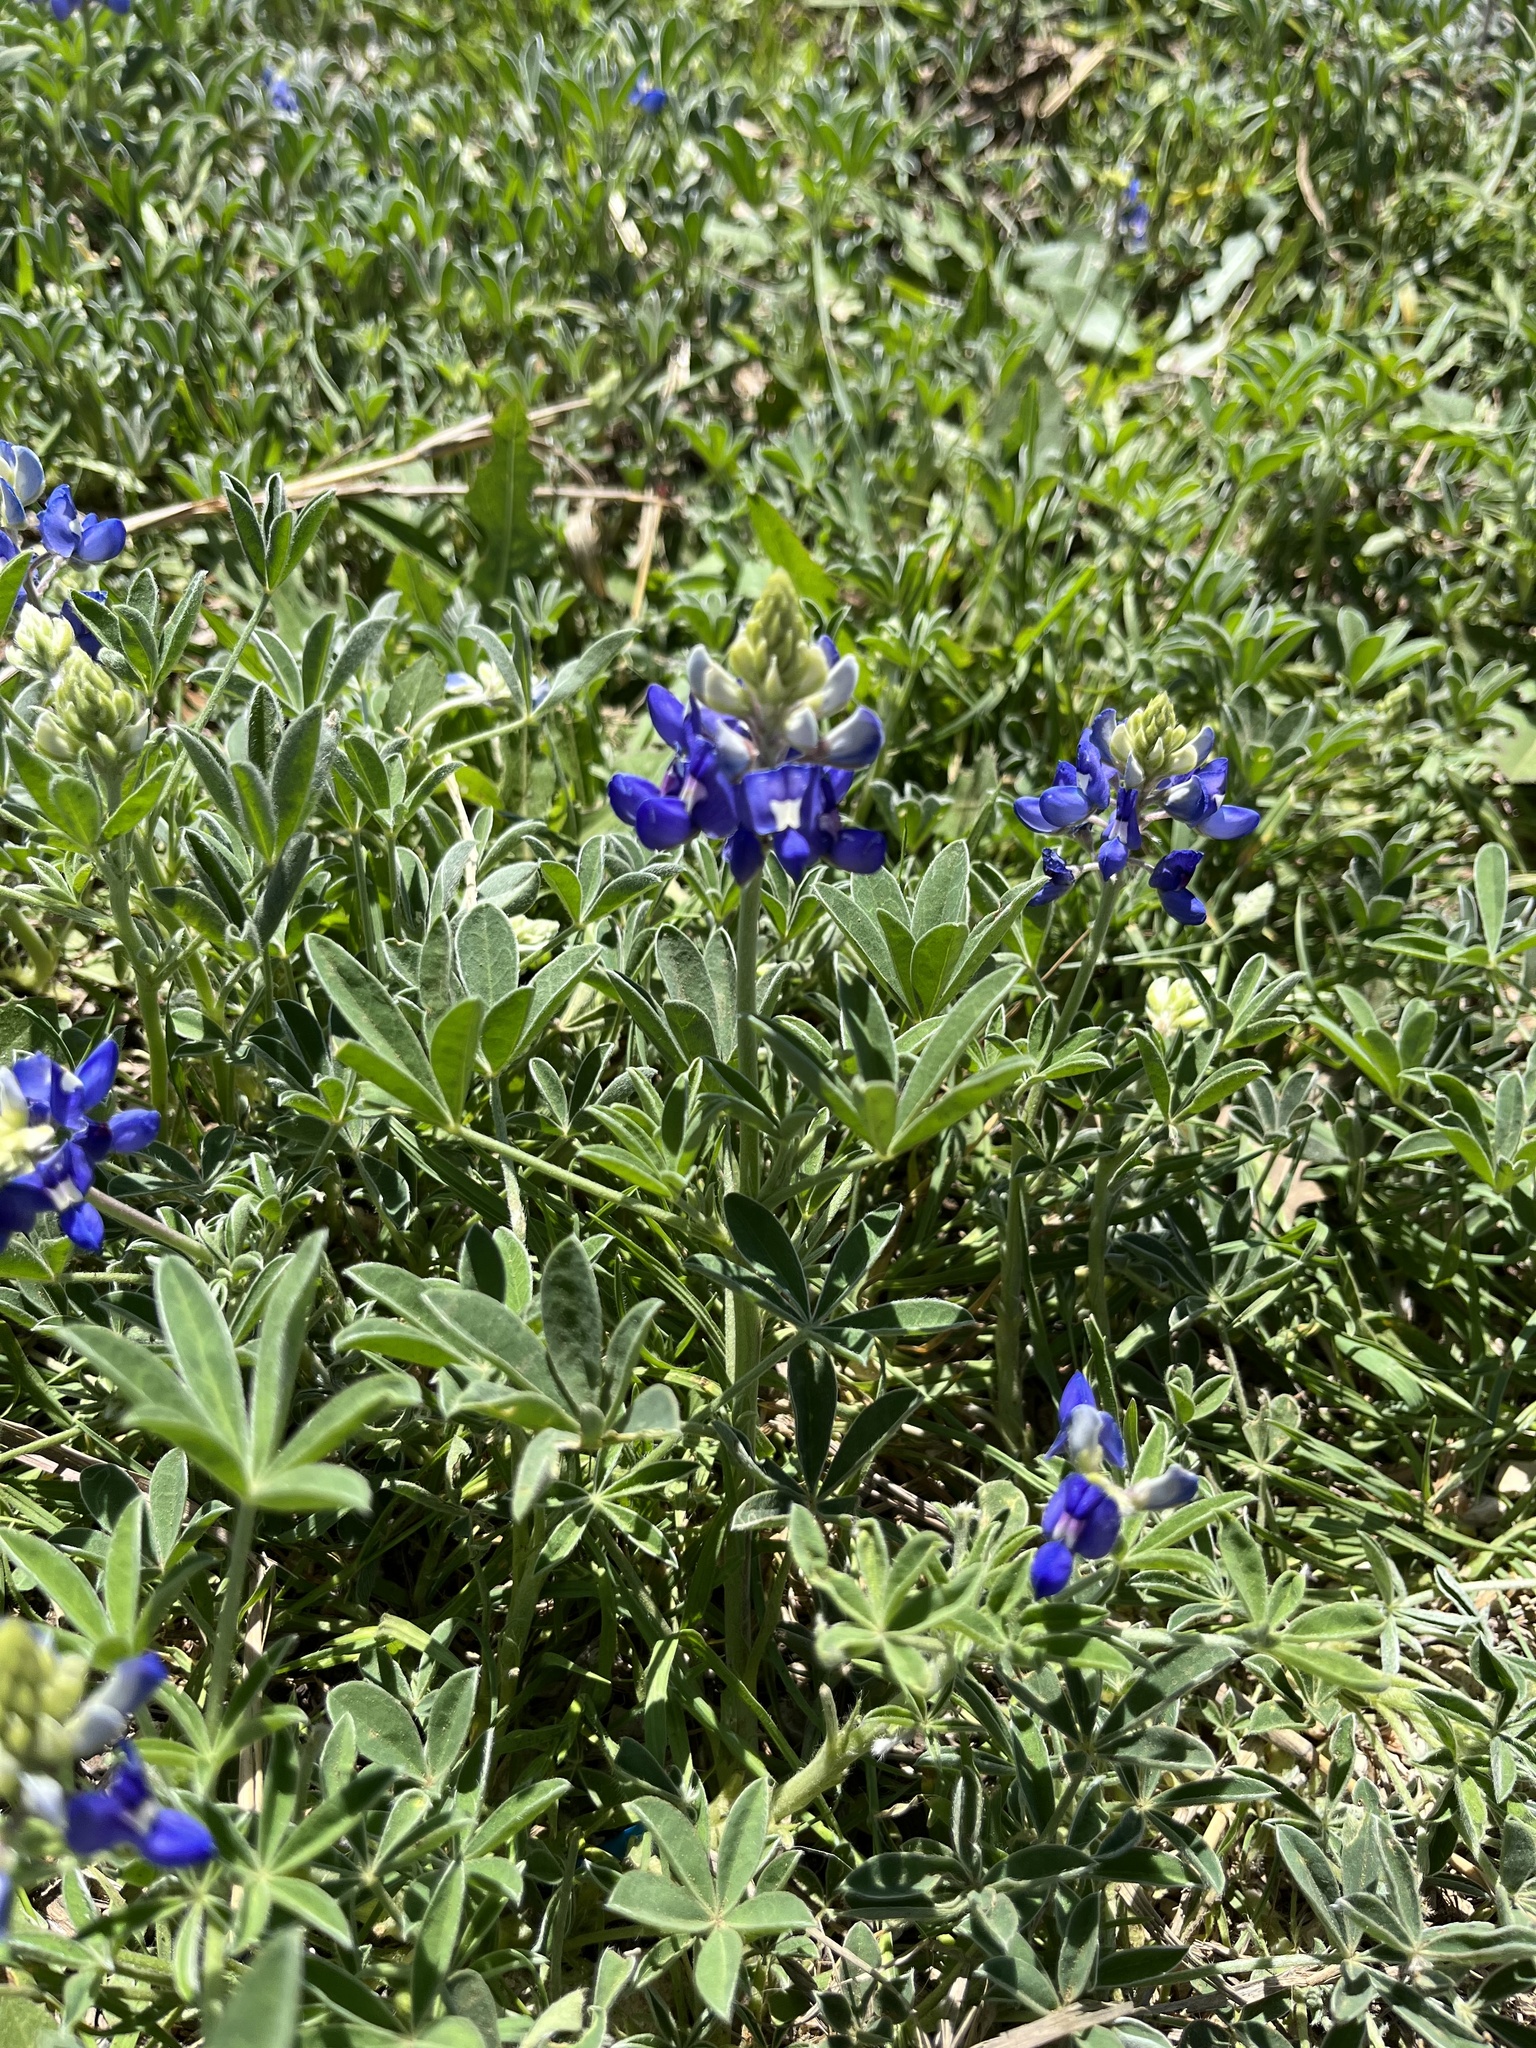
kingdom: Plantae
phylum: Tracheophyta
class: Magnoliopsida
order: Fabales
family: Fabaceae
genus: Lupinus
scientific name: Lupinus texensis
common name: Texas bluebonnet
